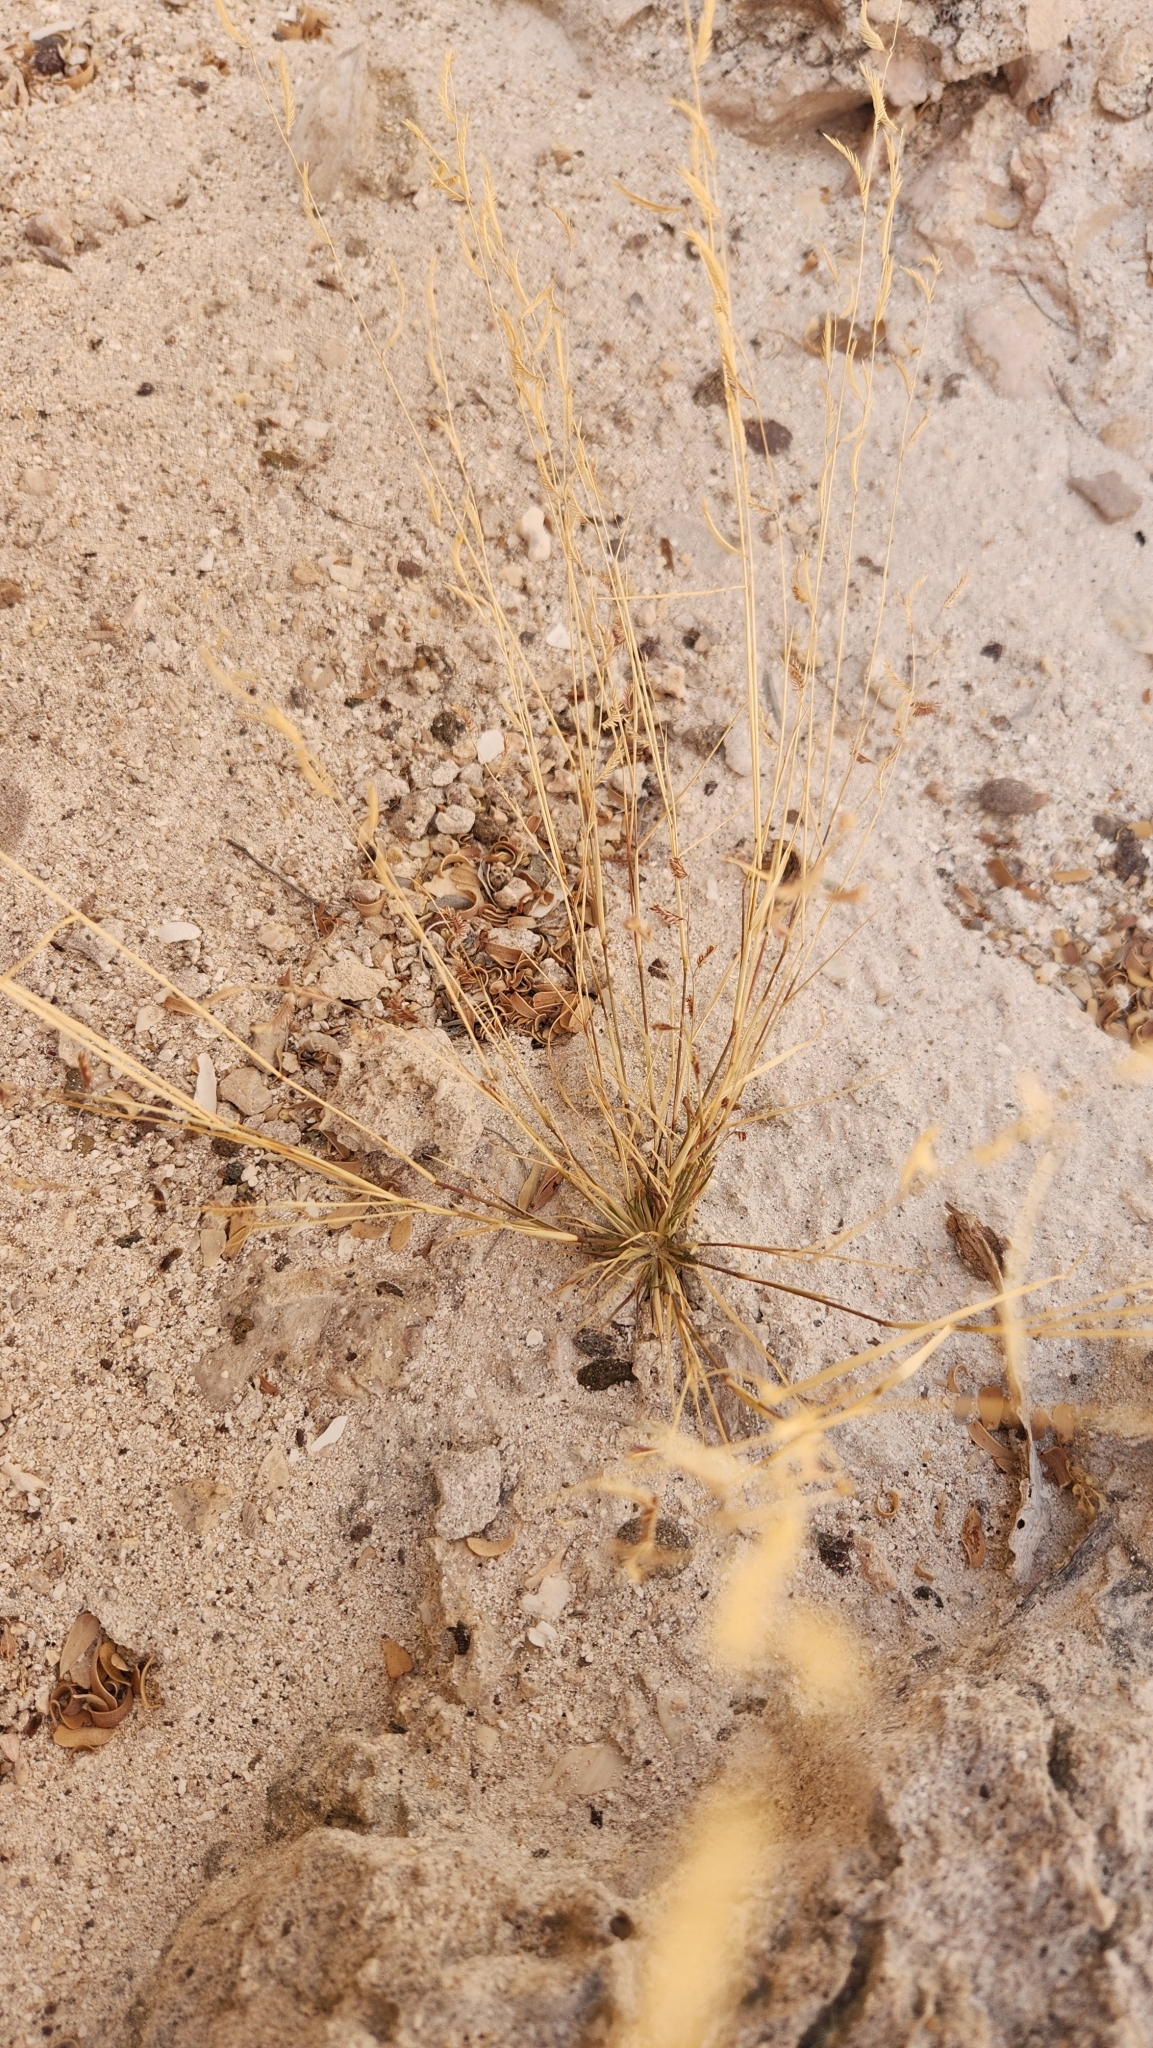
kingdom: Plantae
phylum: Tracheophyta
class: Liliopsida
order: Poales
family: Poaceae
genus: Bouteloua
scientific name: Bouteloua barbata
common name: Six-weeks grama
